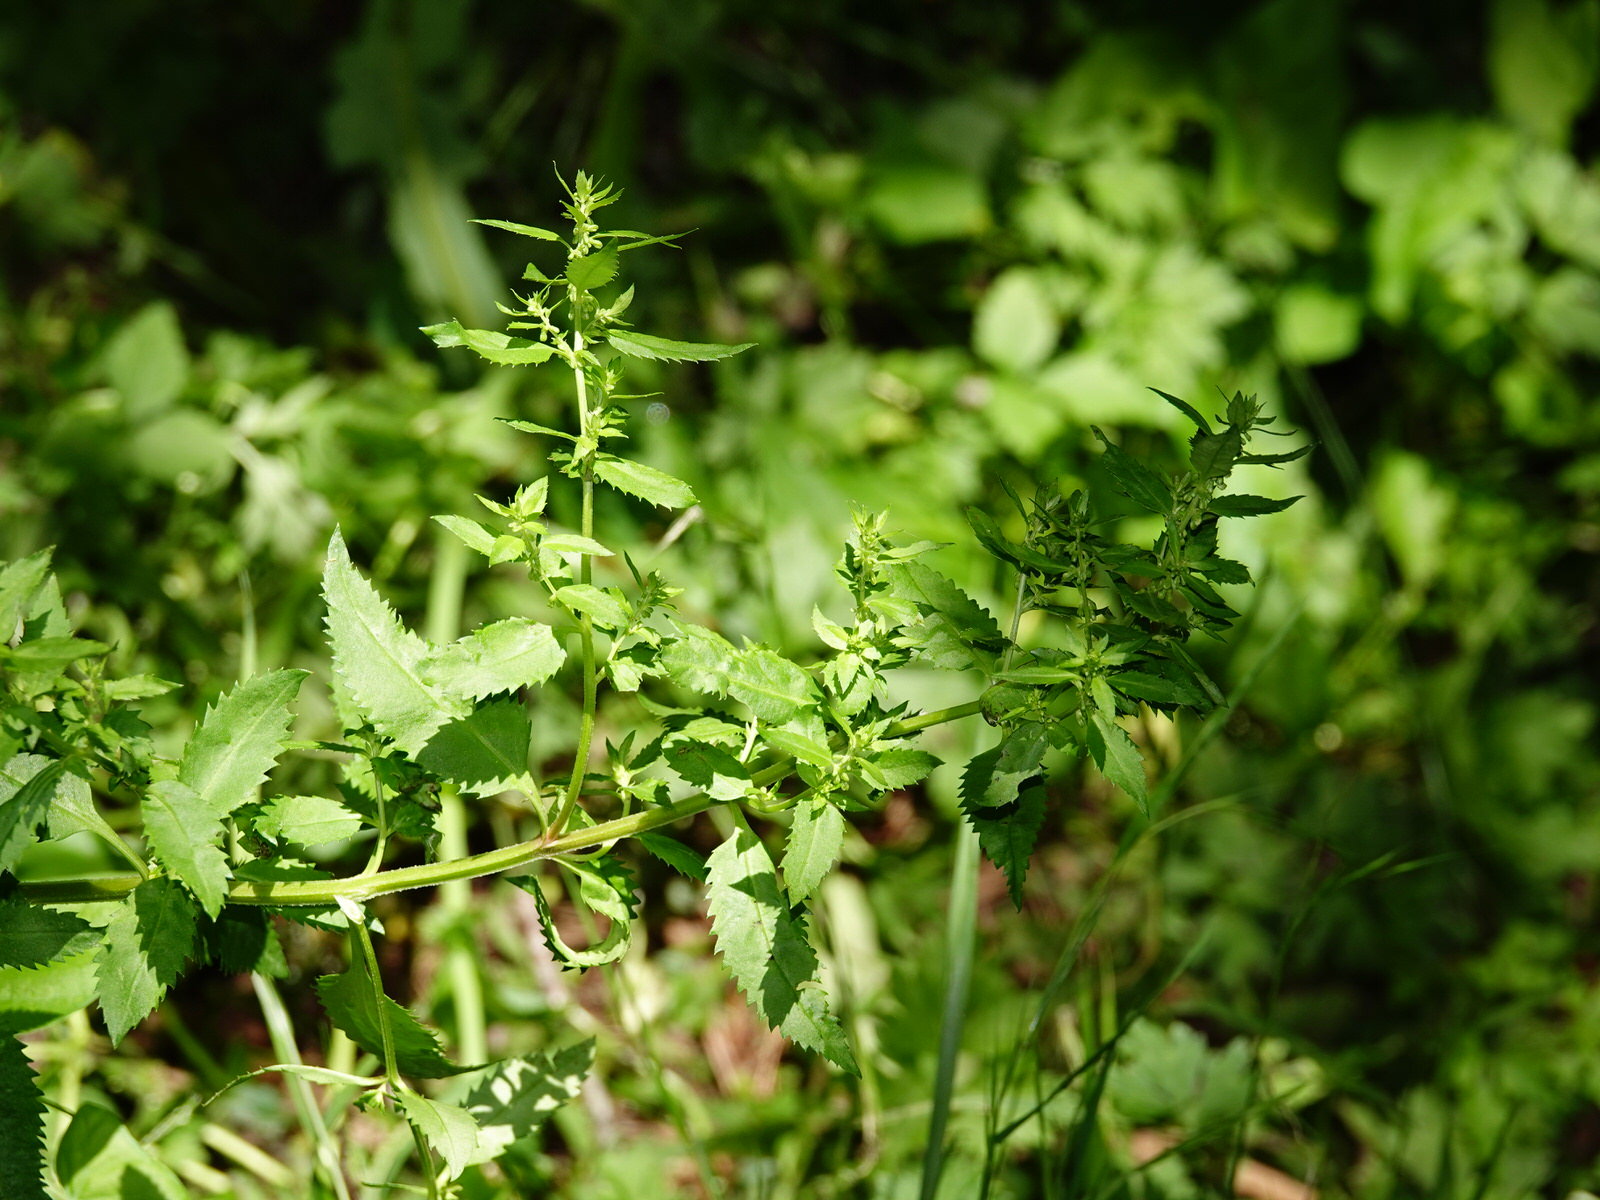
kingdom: Plantae
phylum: Tracheophyta
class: Magnoliopsida
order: Saxifragales
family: Haloragaceae
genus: Haloragis
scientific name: Haloragis erecta
